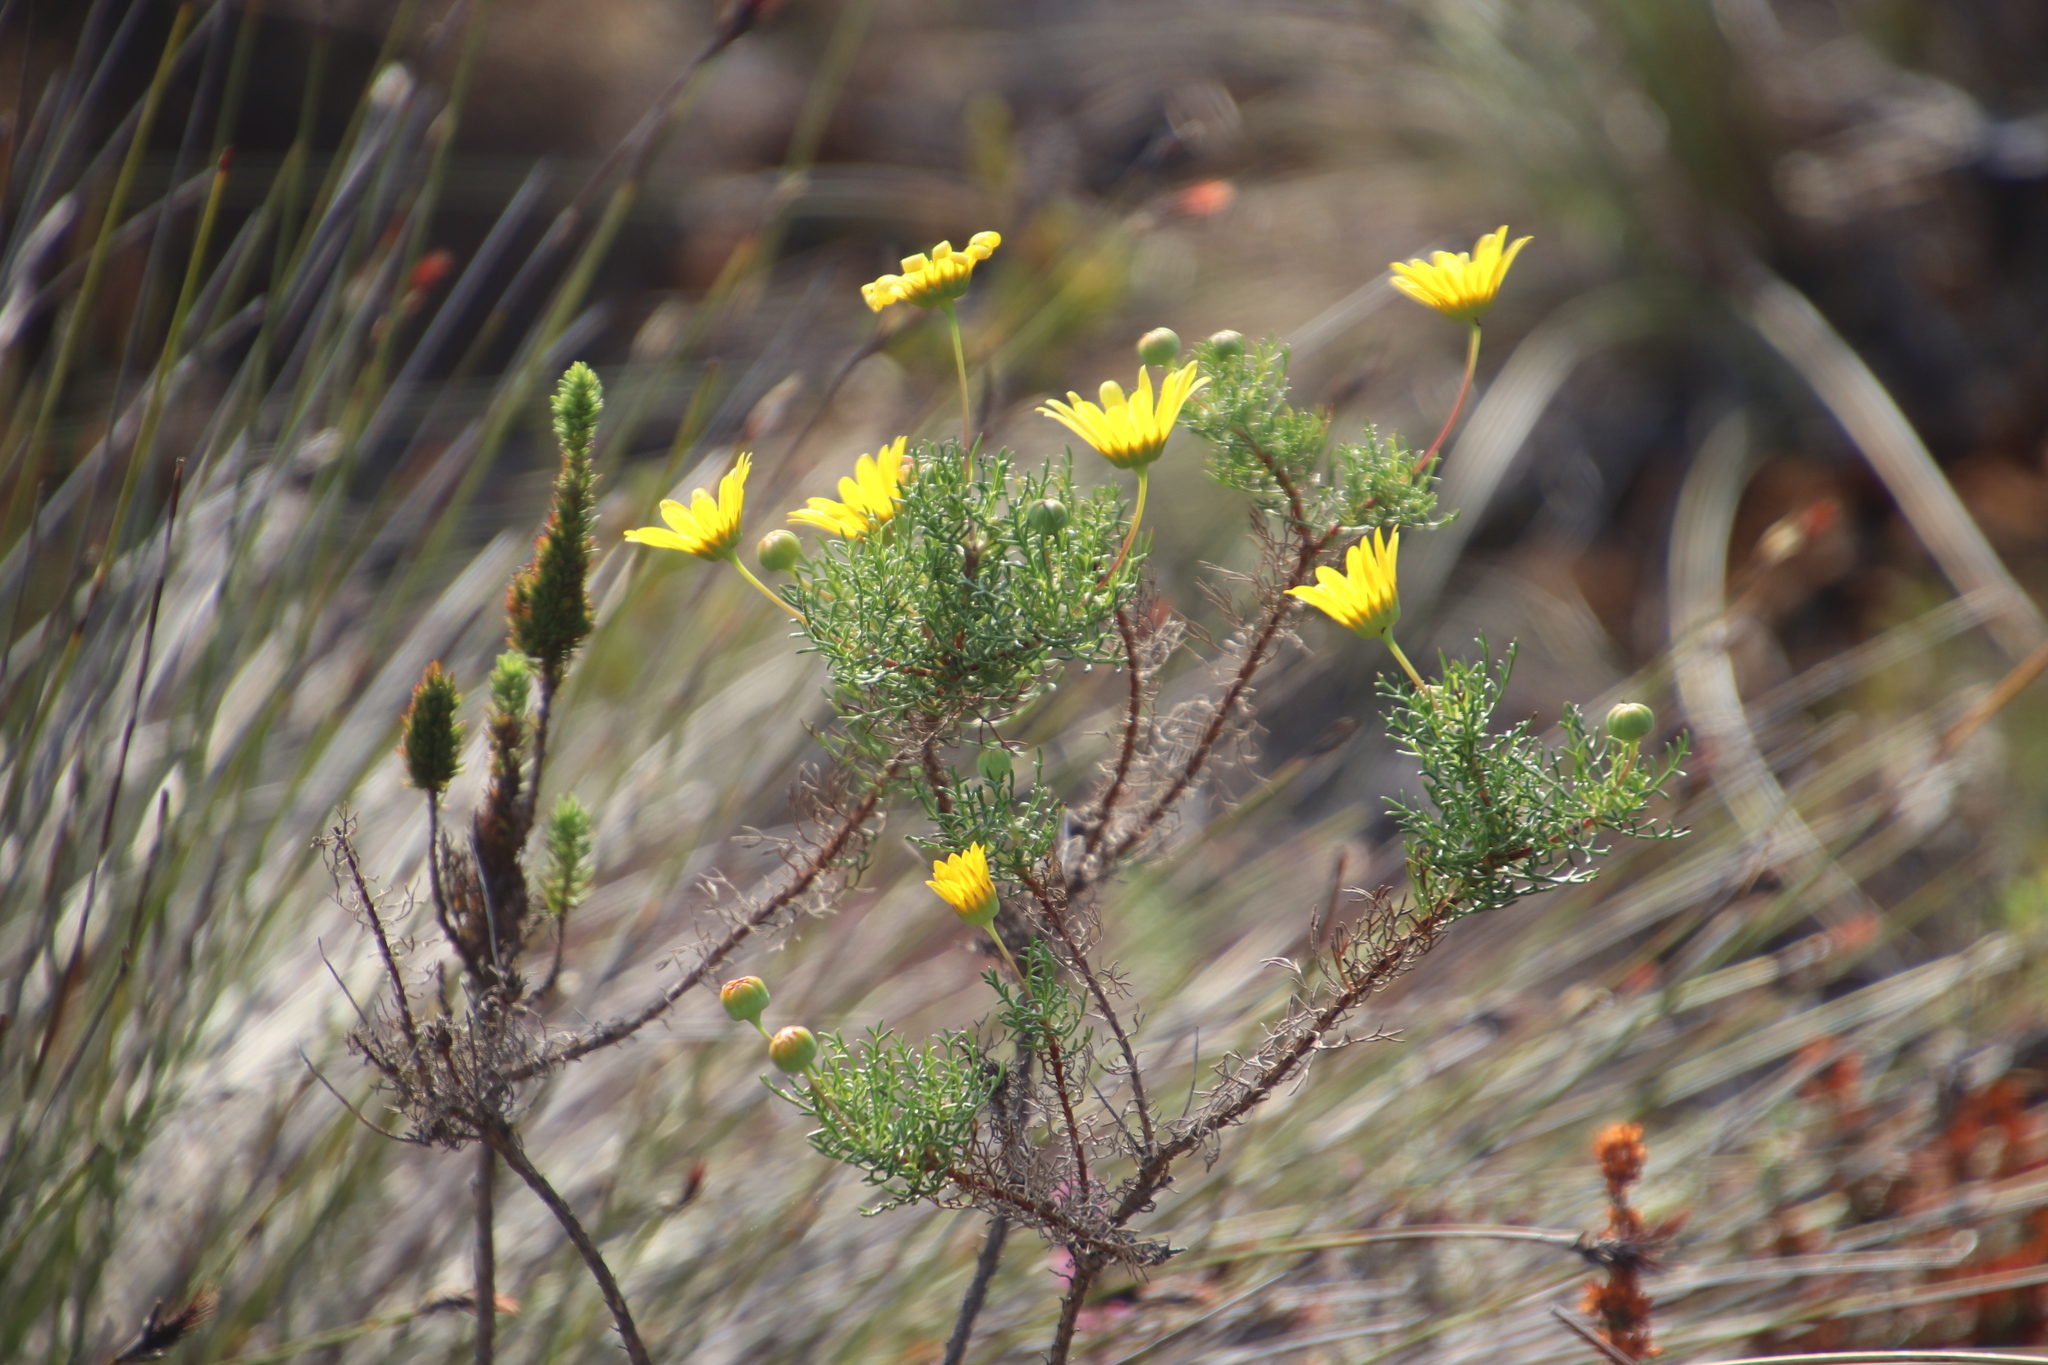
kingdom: Plantae
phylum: Tracheophyta
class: Magnoliopsida
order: Asterales
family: Asteraceae
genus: Euryops
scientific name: Euryops abrotanifolius
